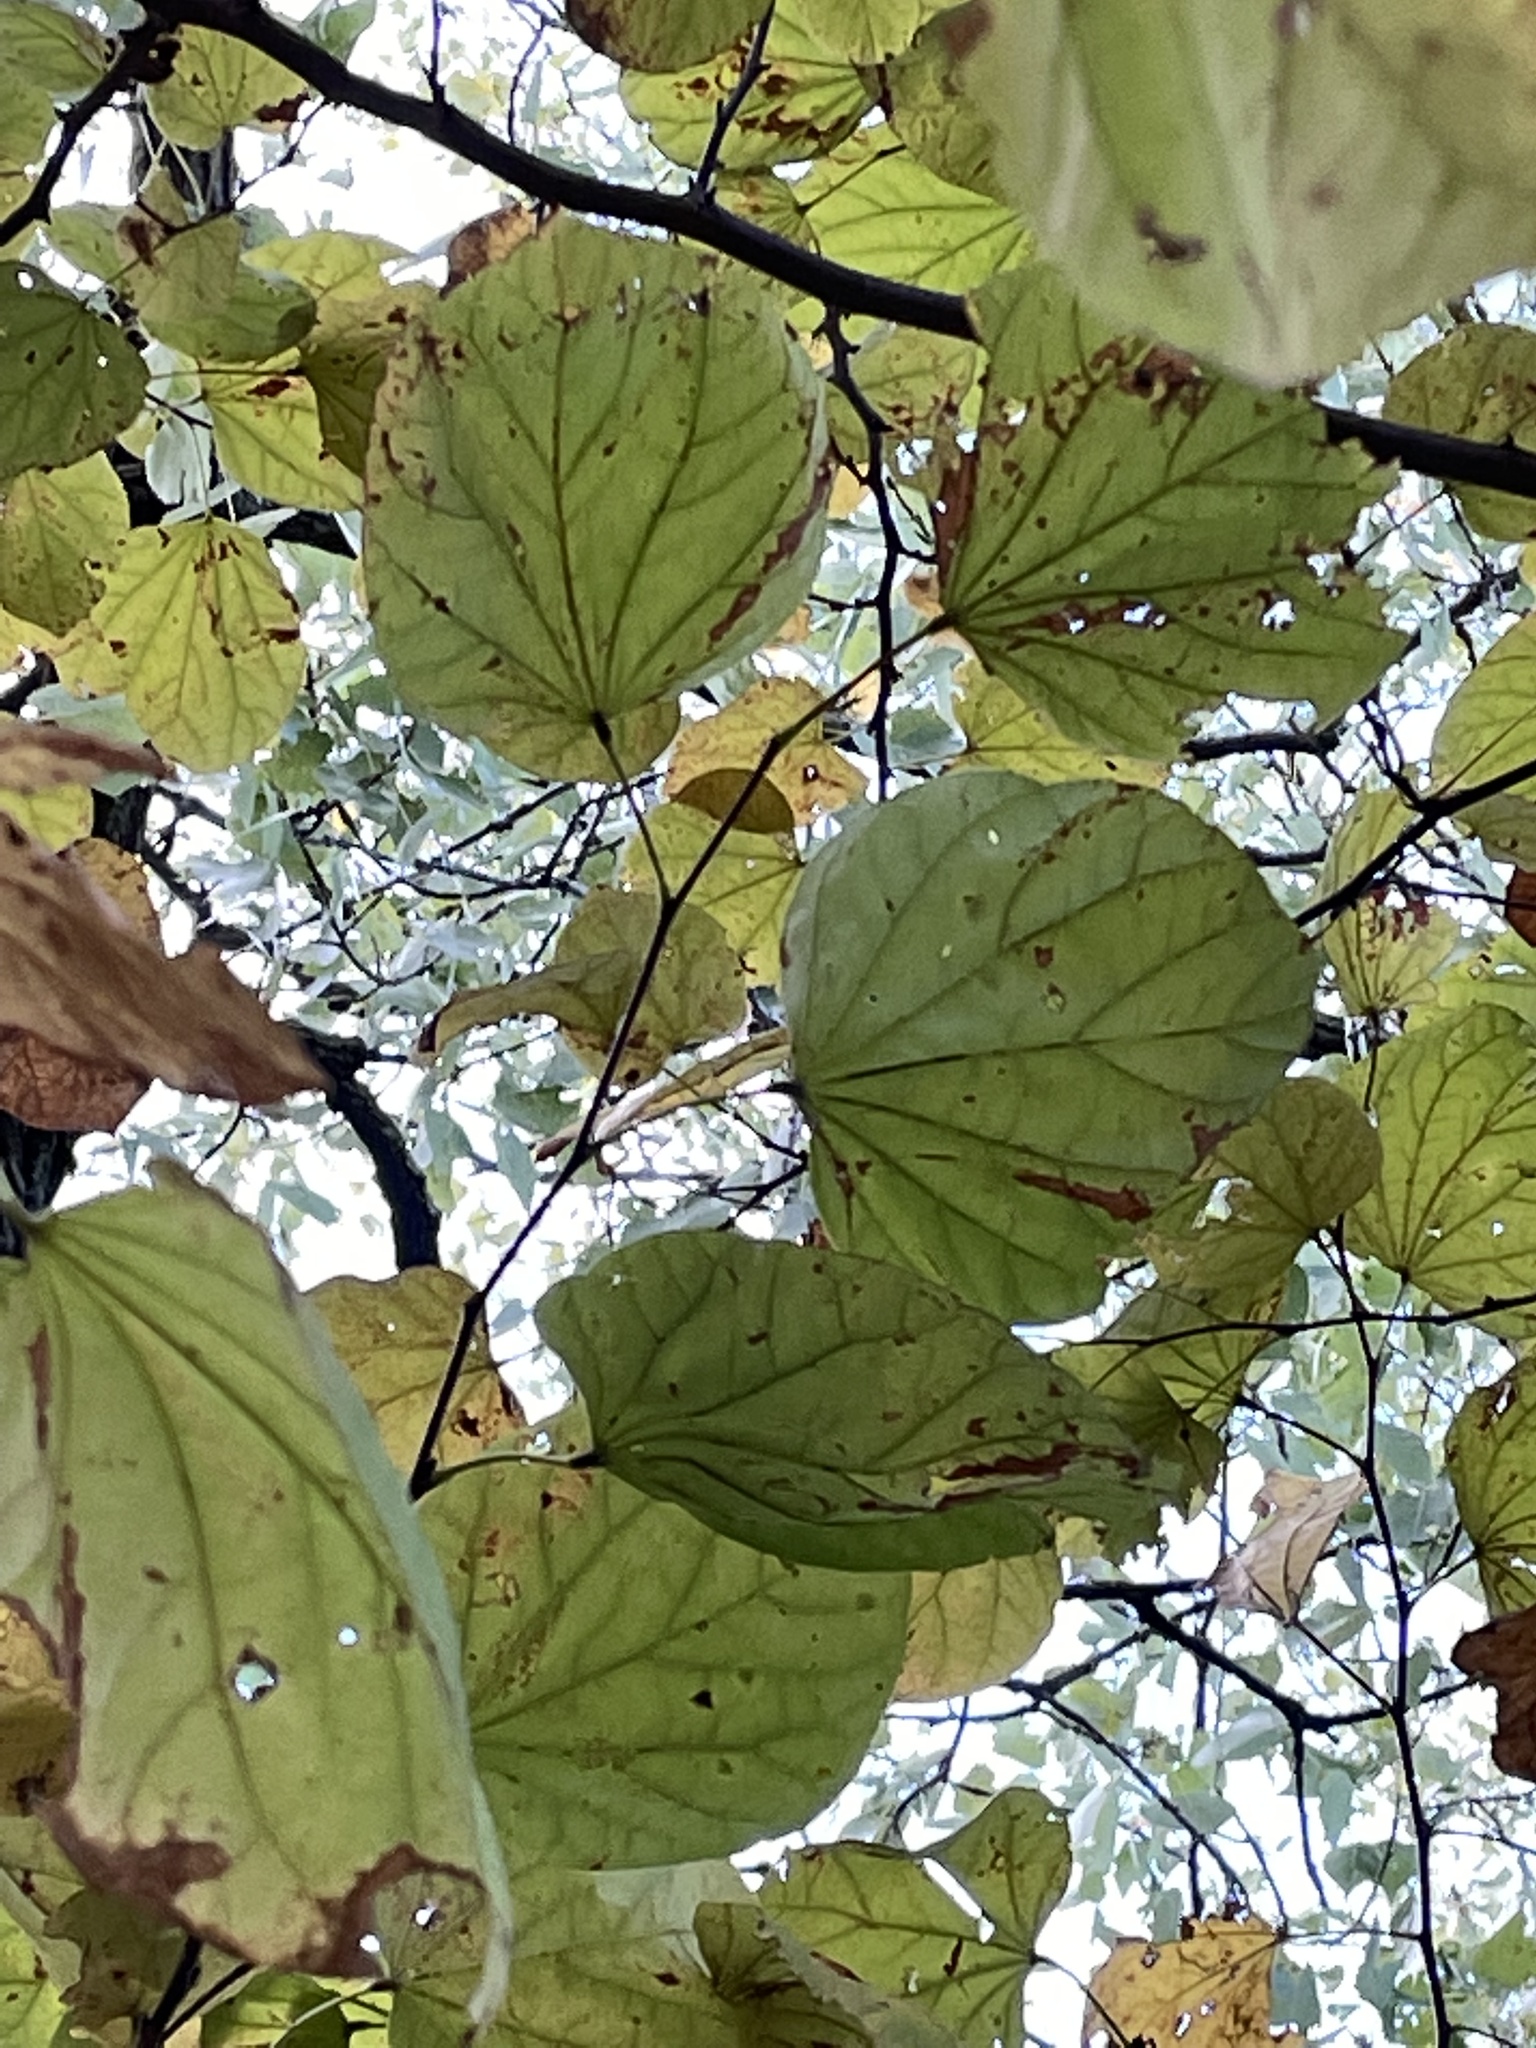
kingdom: Plantae
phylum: Tracheophyta
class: Magnoliopsida
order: Fabales
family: Fabaceae
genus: Cercis
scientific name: Cercis canadensis
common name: Eastern redbud
